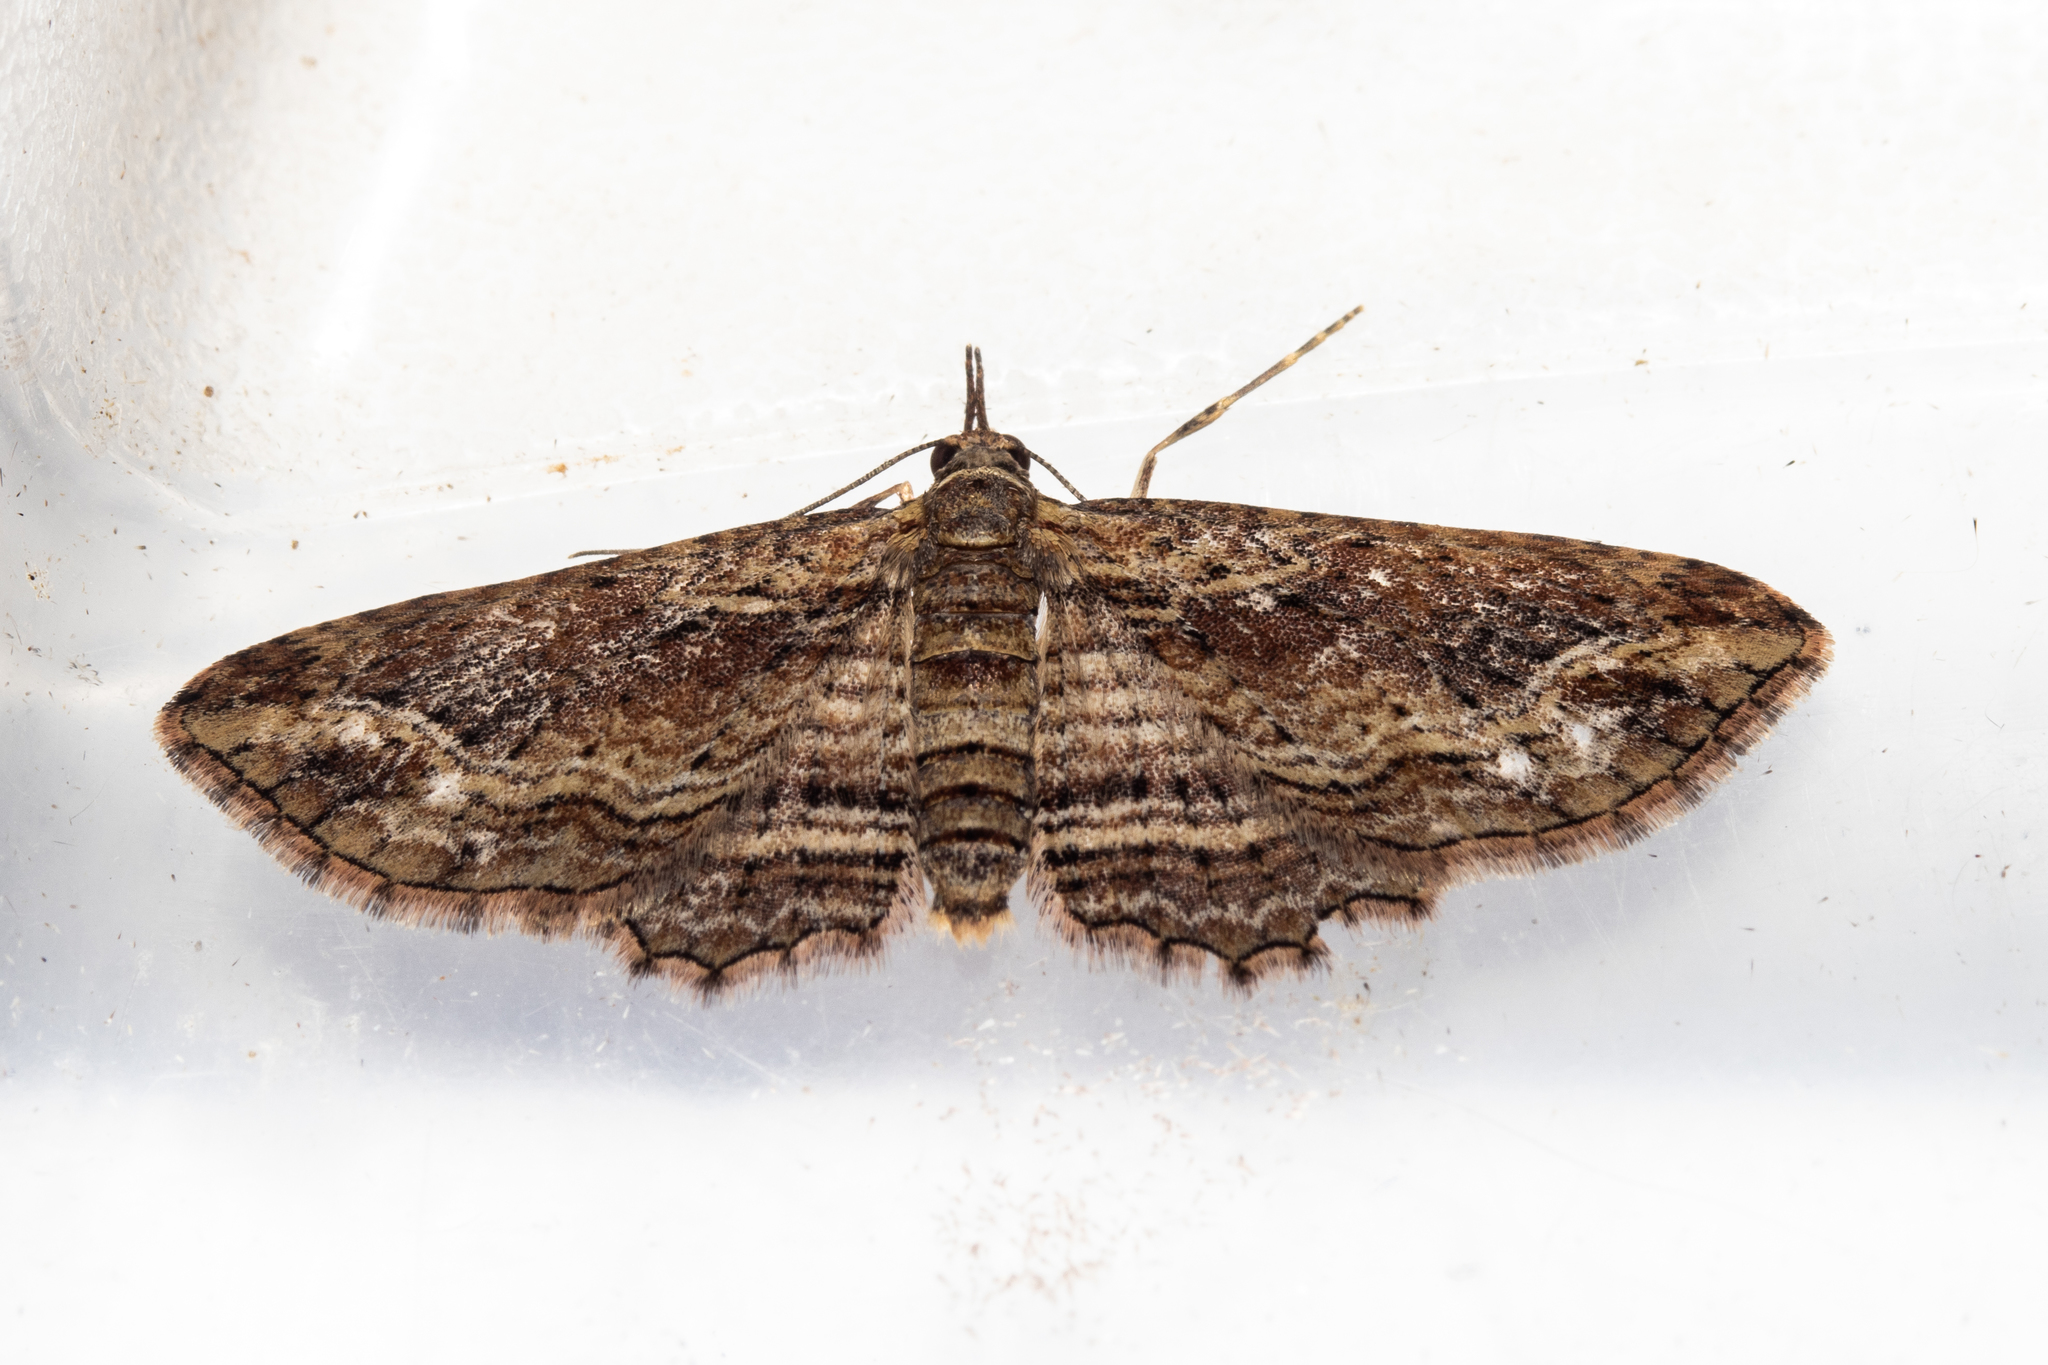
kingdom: Animalia
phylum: Arthropoda
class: Insecta
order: Lepidoptera
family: Geometridae
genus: Chloroclystis
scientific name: Chloroclystis filata
